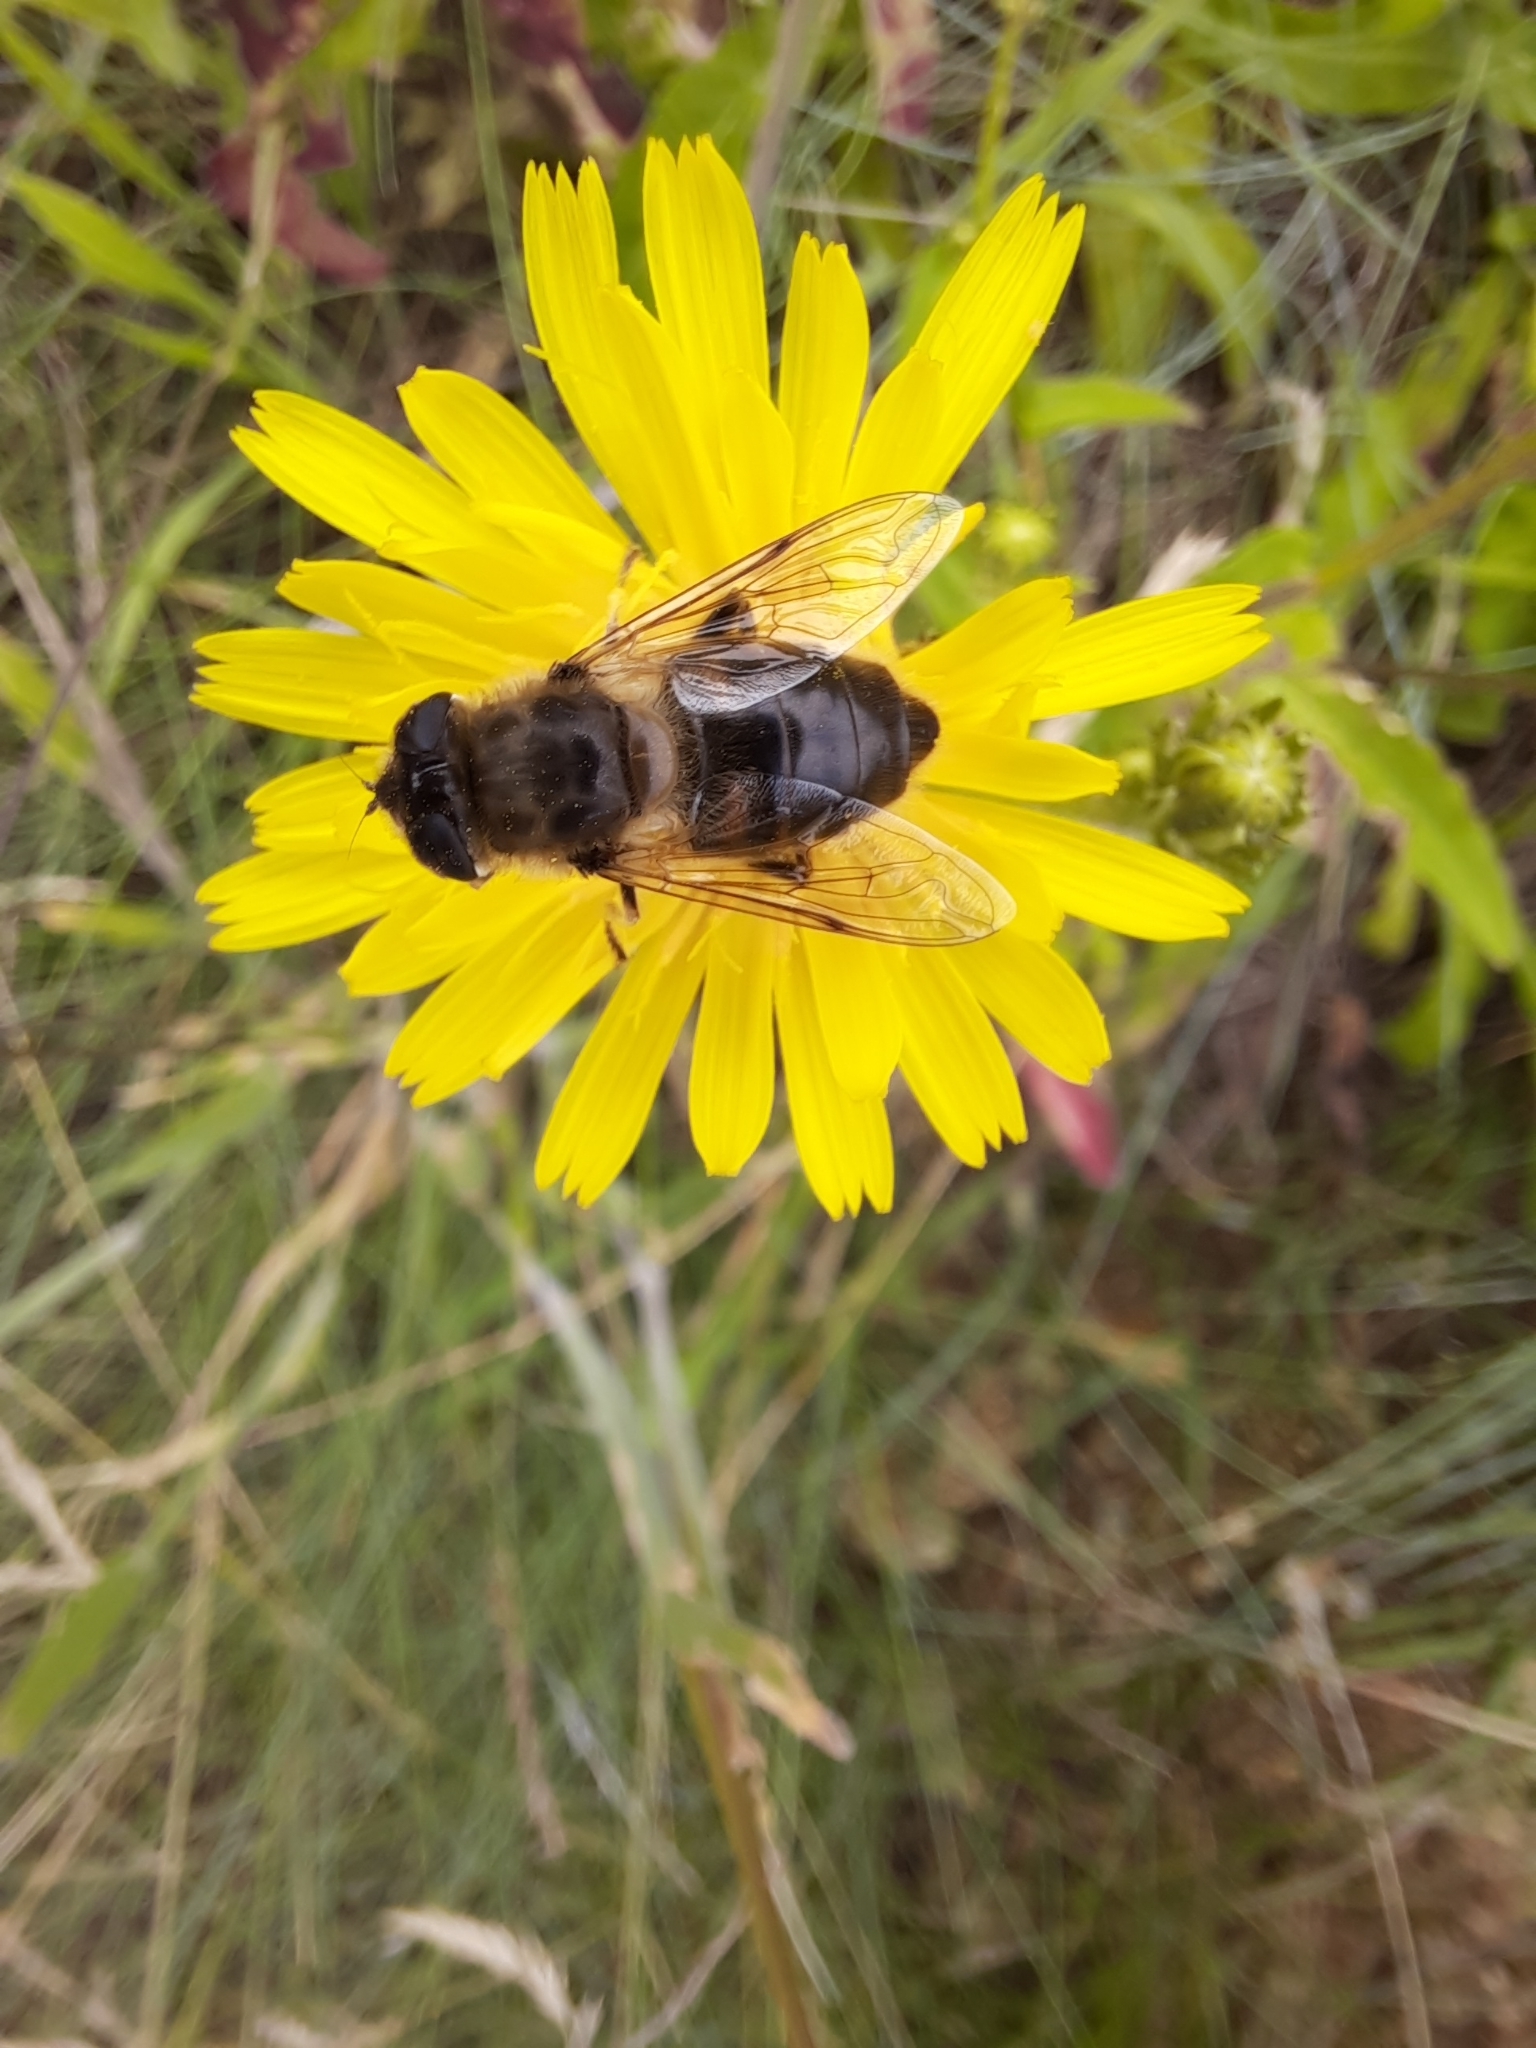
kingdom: Animalia
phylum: Arthropoda
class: Insecta
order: Diptera
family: Syrphidae
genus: Eristalis
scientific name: Eristalis tenax
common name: Drone fly
